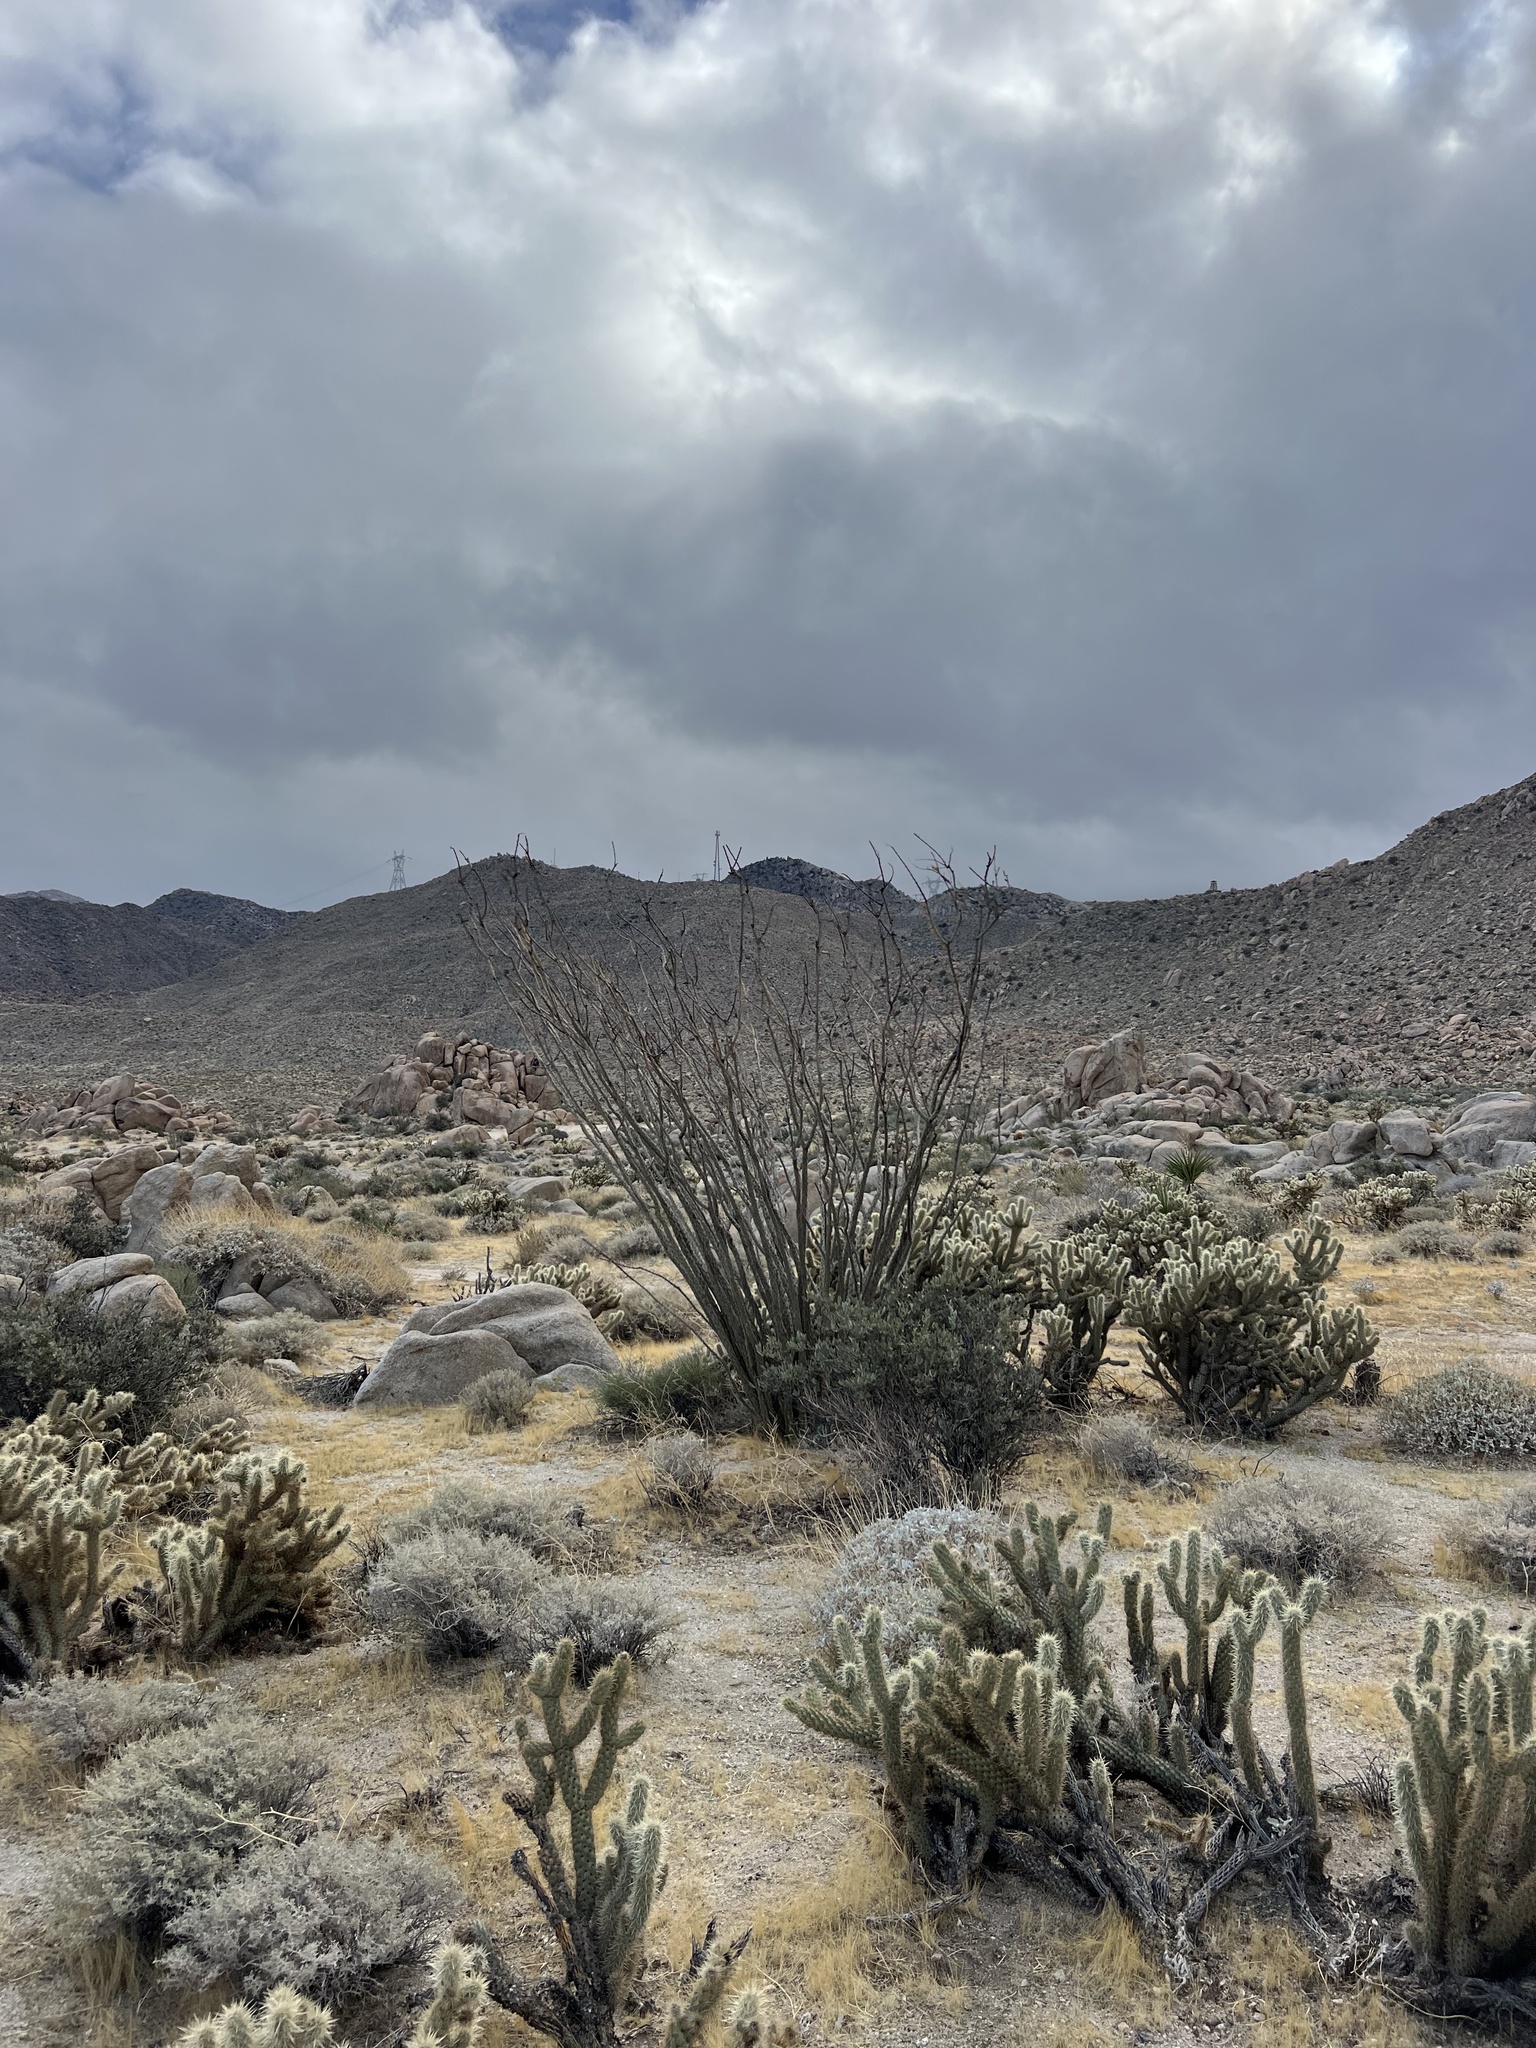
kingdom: Plantae
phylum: Tracheophyta
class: Magnoliopsida
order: Ericales
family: Fouquieriaceae
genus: Fouquieria
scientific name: Fouquieria splendens
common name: Vine-cactus
